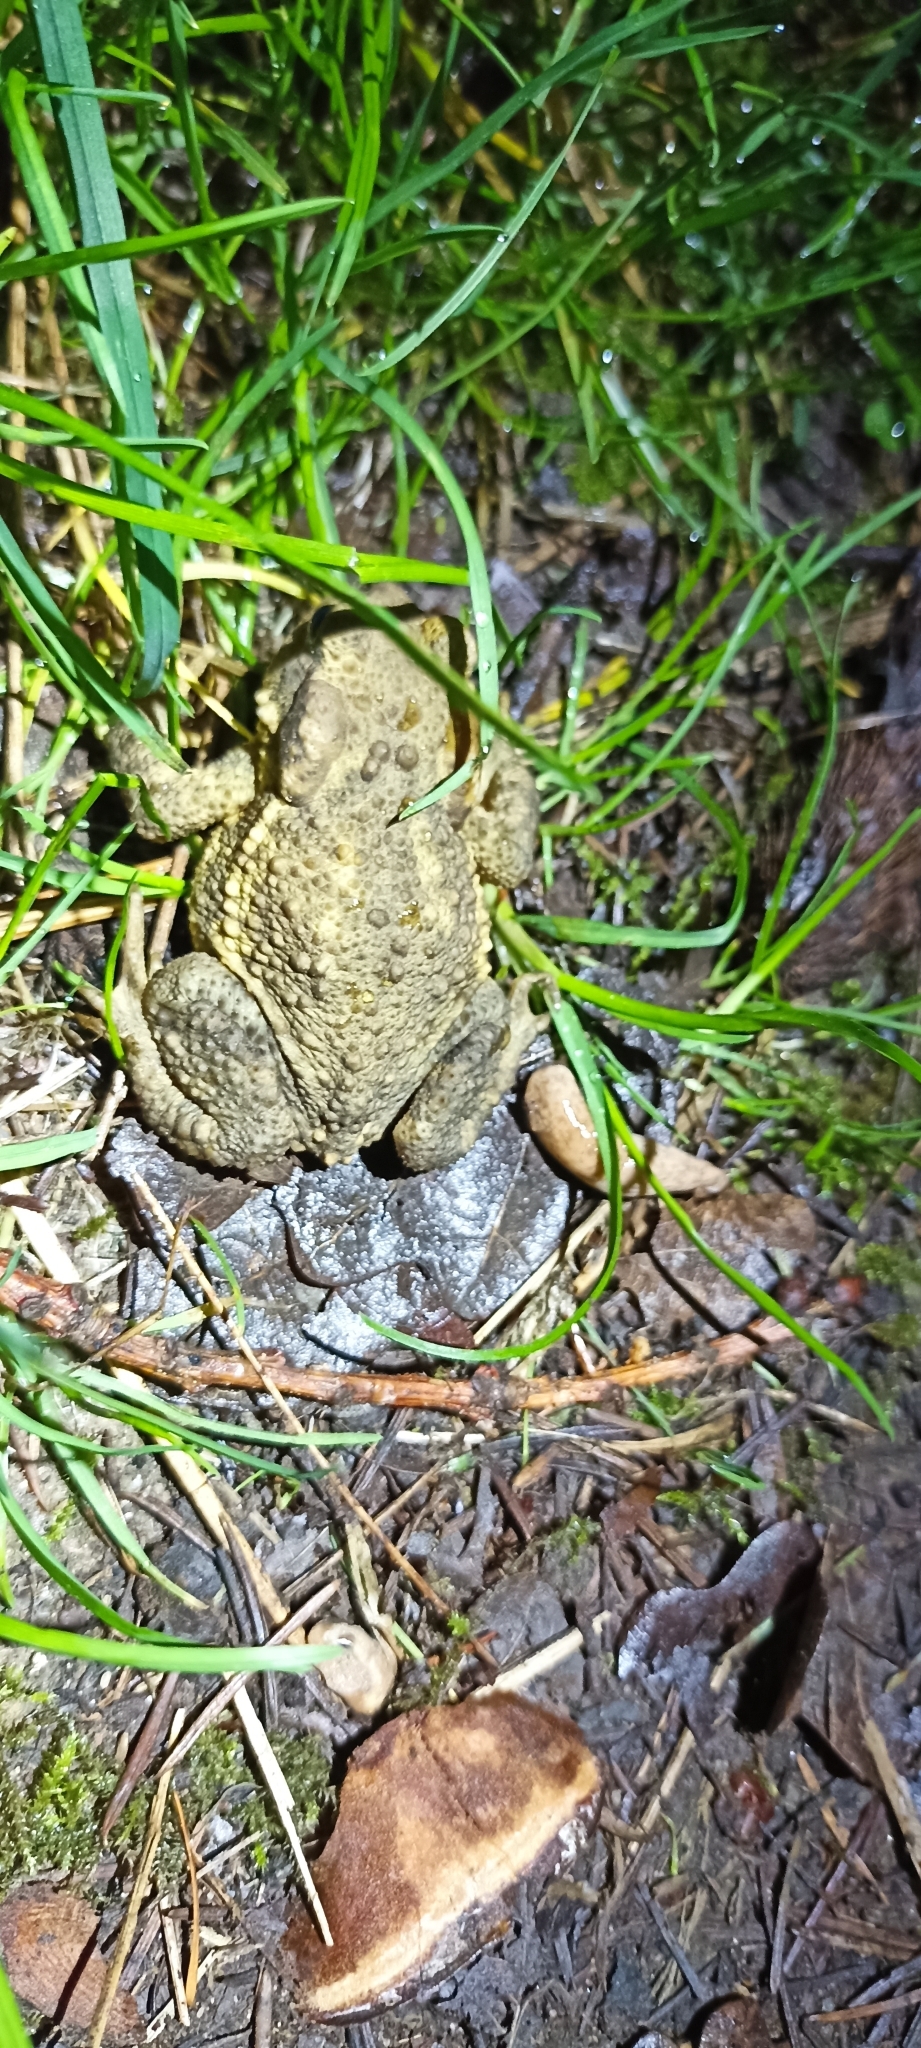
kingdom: Animalia
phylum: Chordata
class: Amphibia
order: Anura
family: Bufonidae
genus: Bufo
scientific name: Bufo spinosus
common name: Western common toad
